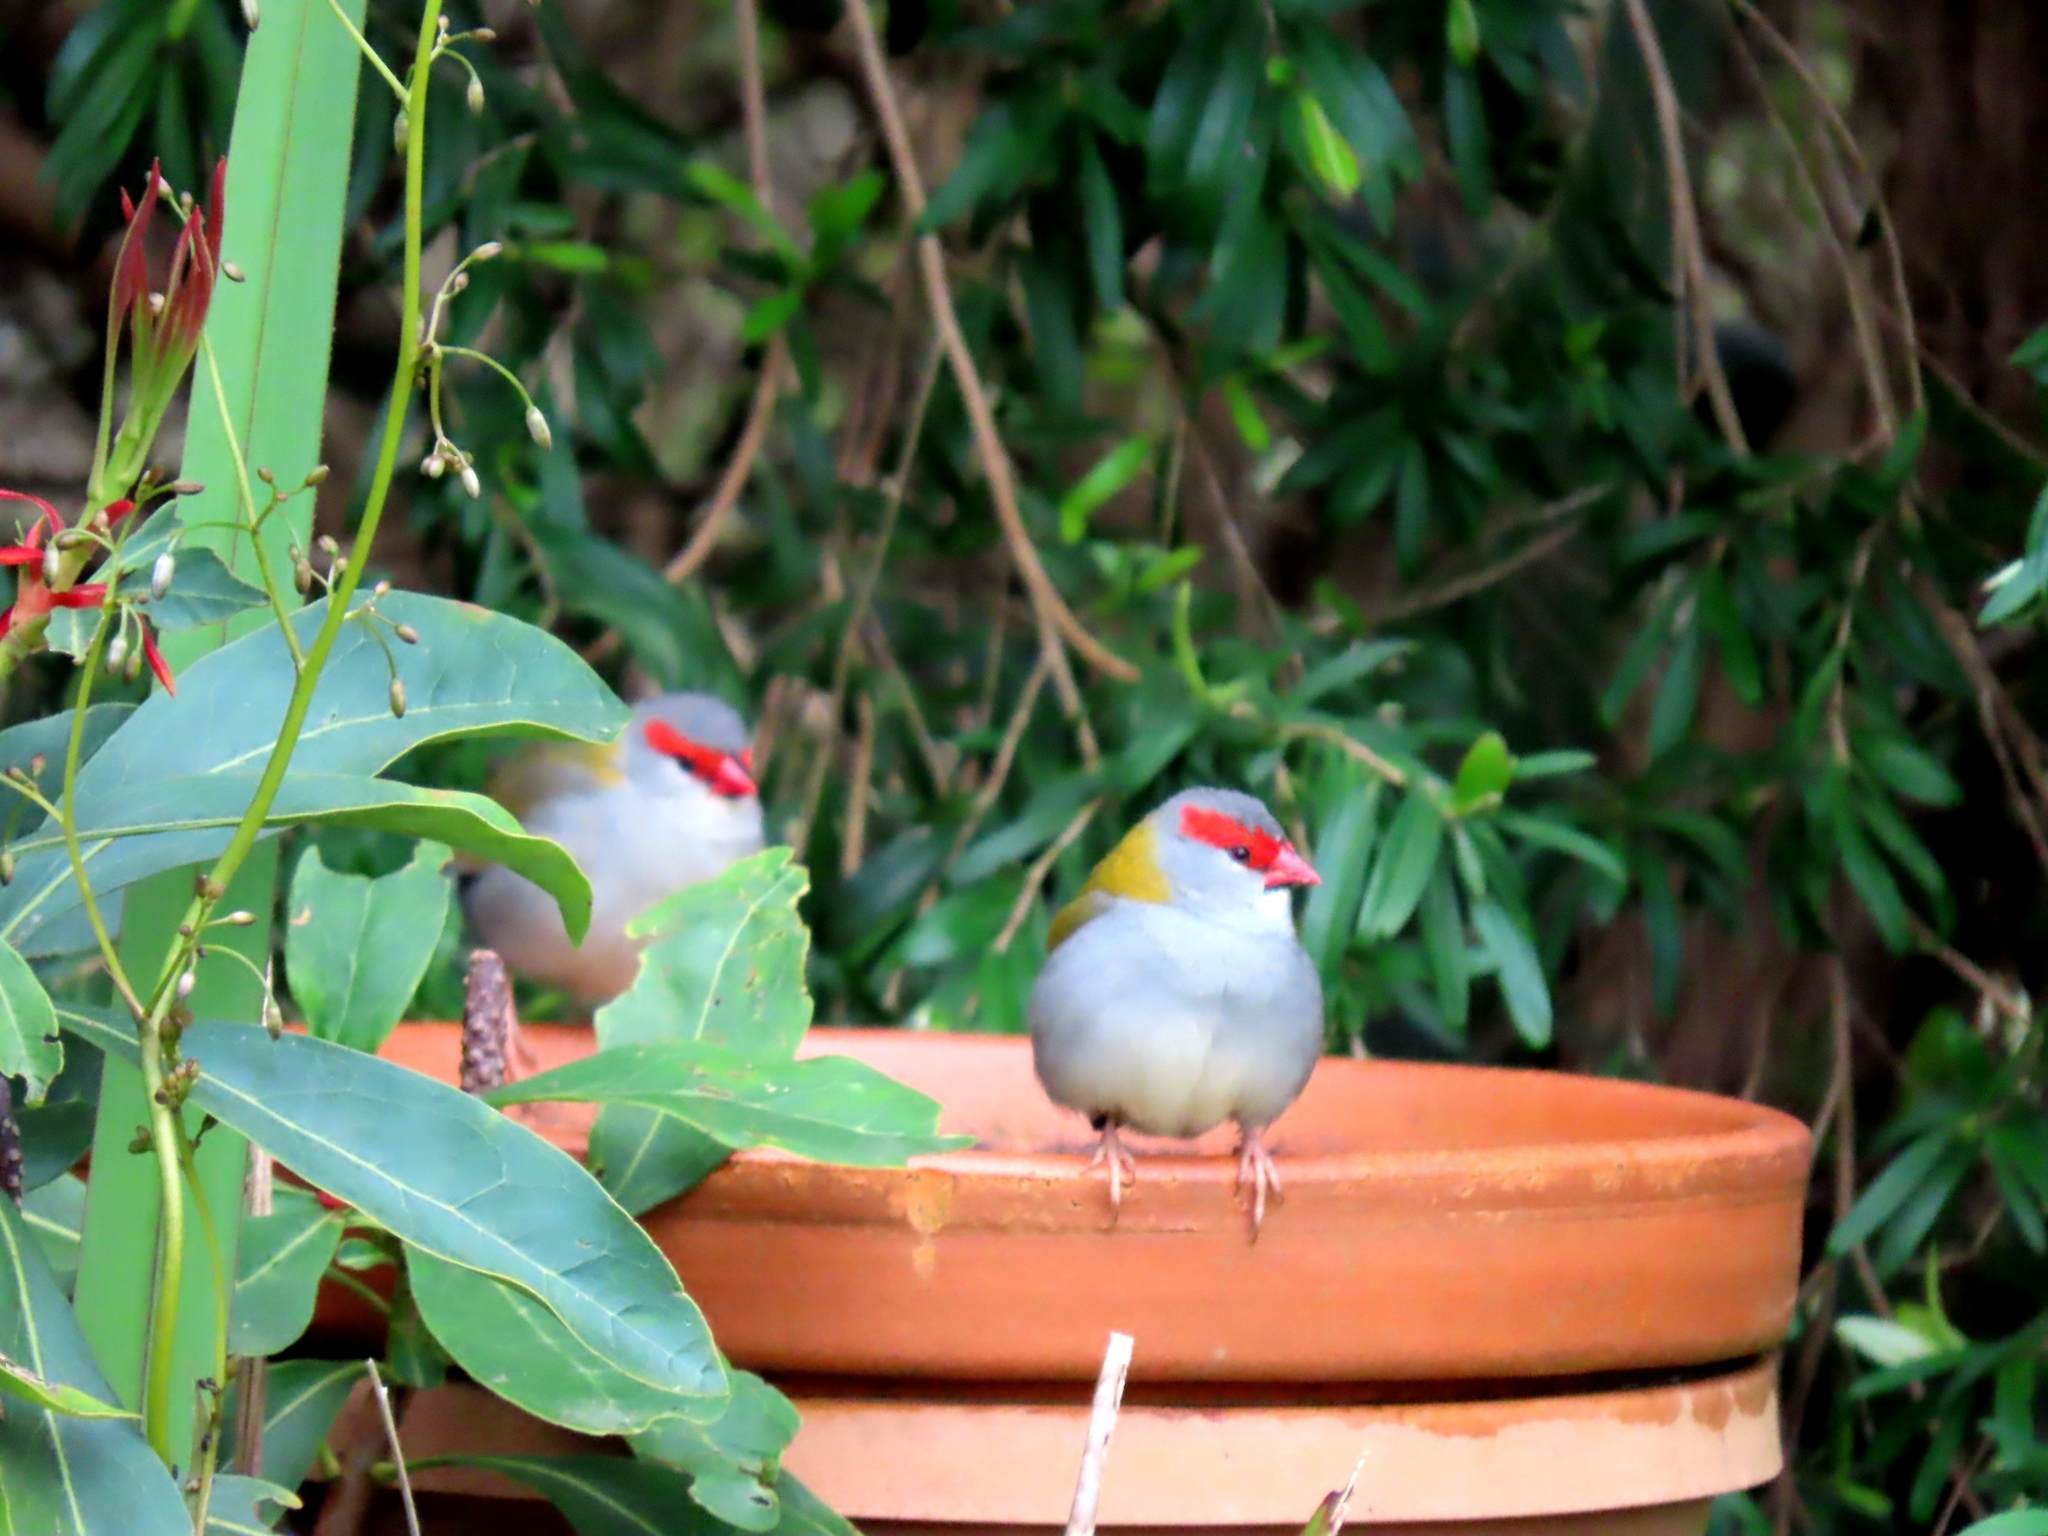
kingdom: Animalia
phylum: Chordata
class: Aves
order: Passeriformes
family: Estrildidae
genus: Neochmia
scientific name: Neochmia temporalis
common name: Red-browed finch
